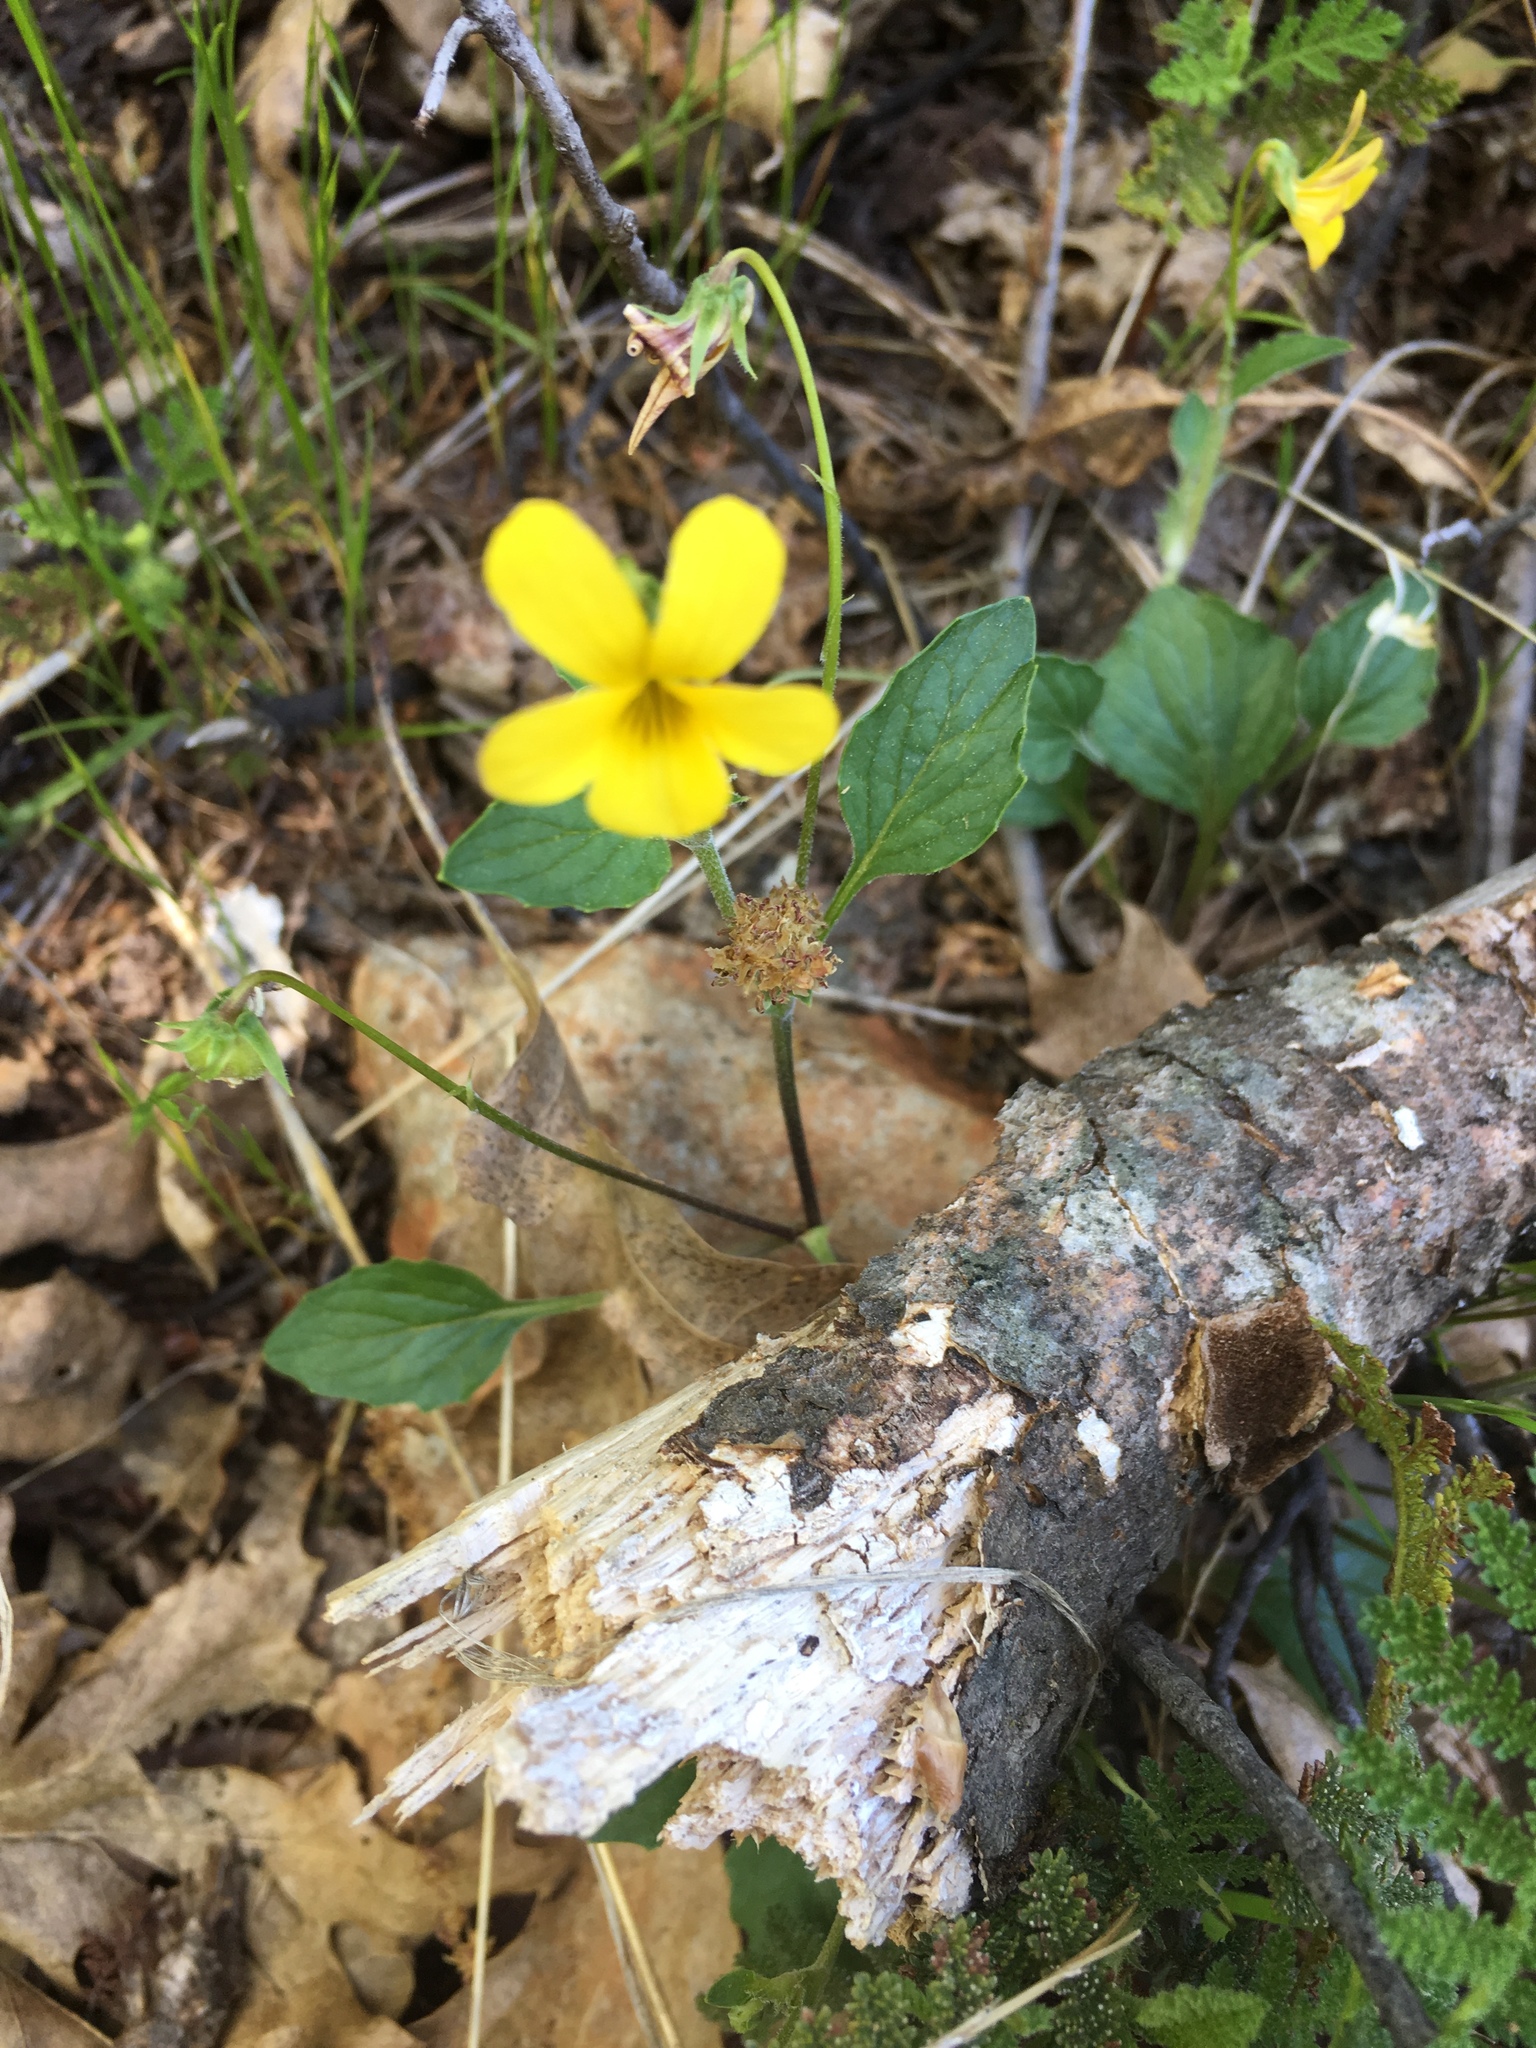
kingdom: Plantae
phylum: Tracheophyta
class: Magnoliopsida
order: Malpighiales
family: Violaceae
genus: Viola
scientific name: Viola purpurea
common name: Pine violet
